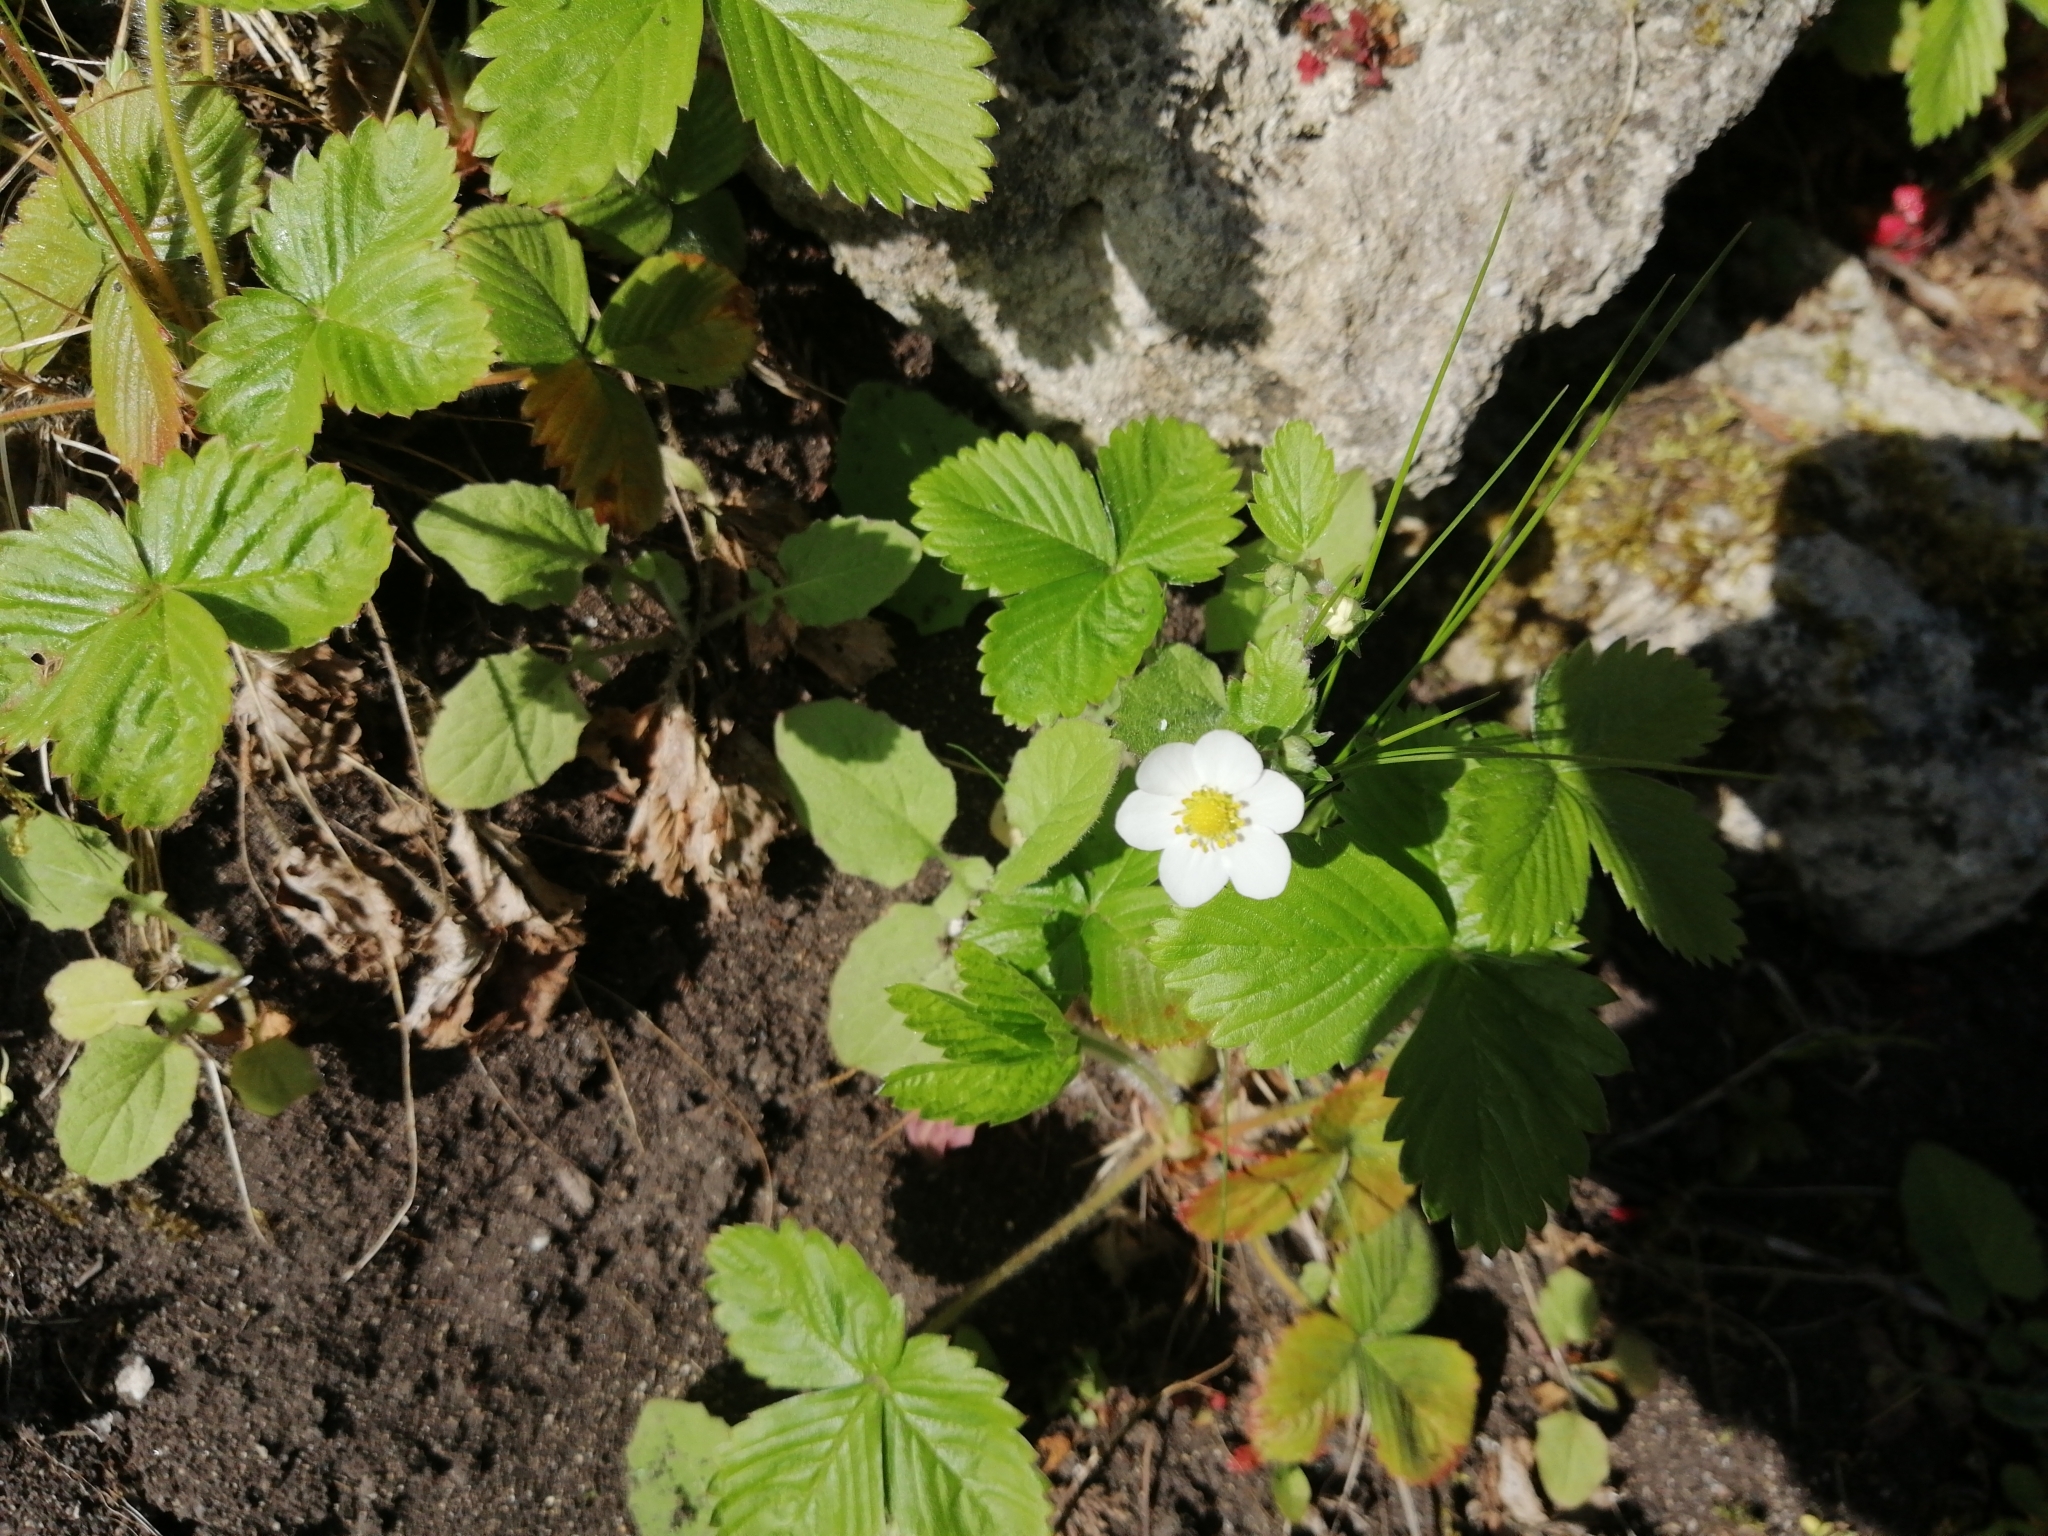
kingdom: Plantae
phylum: Tracheophyta
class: Magnoliopsida
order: Rosales
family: Rosaceae
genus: Fragaria
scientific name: Fragaria vesca
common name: Wild strawberry
